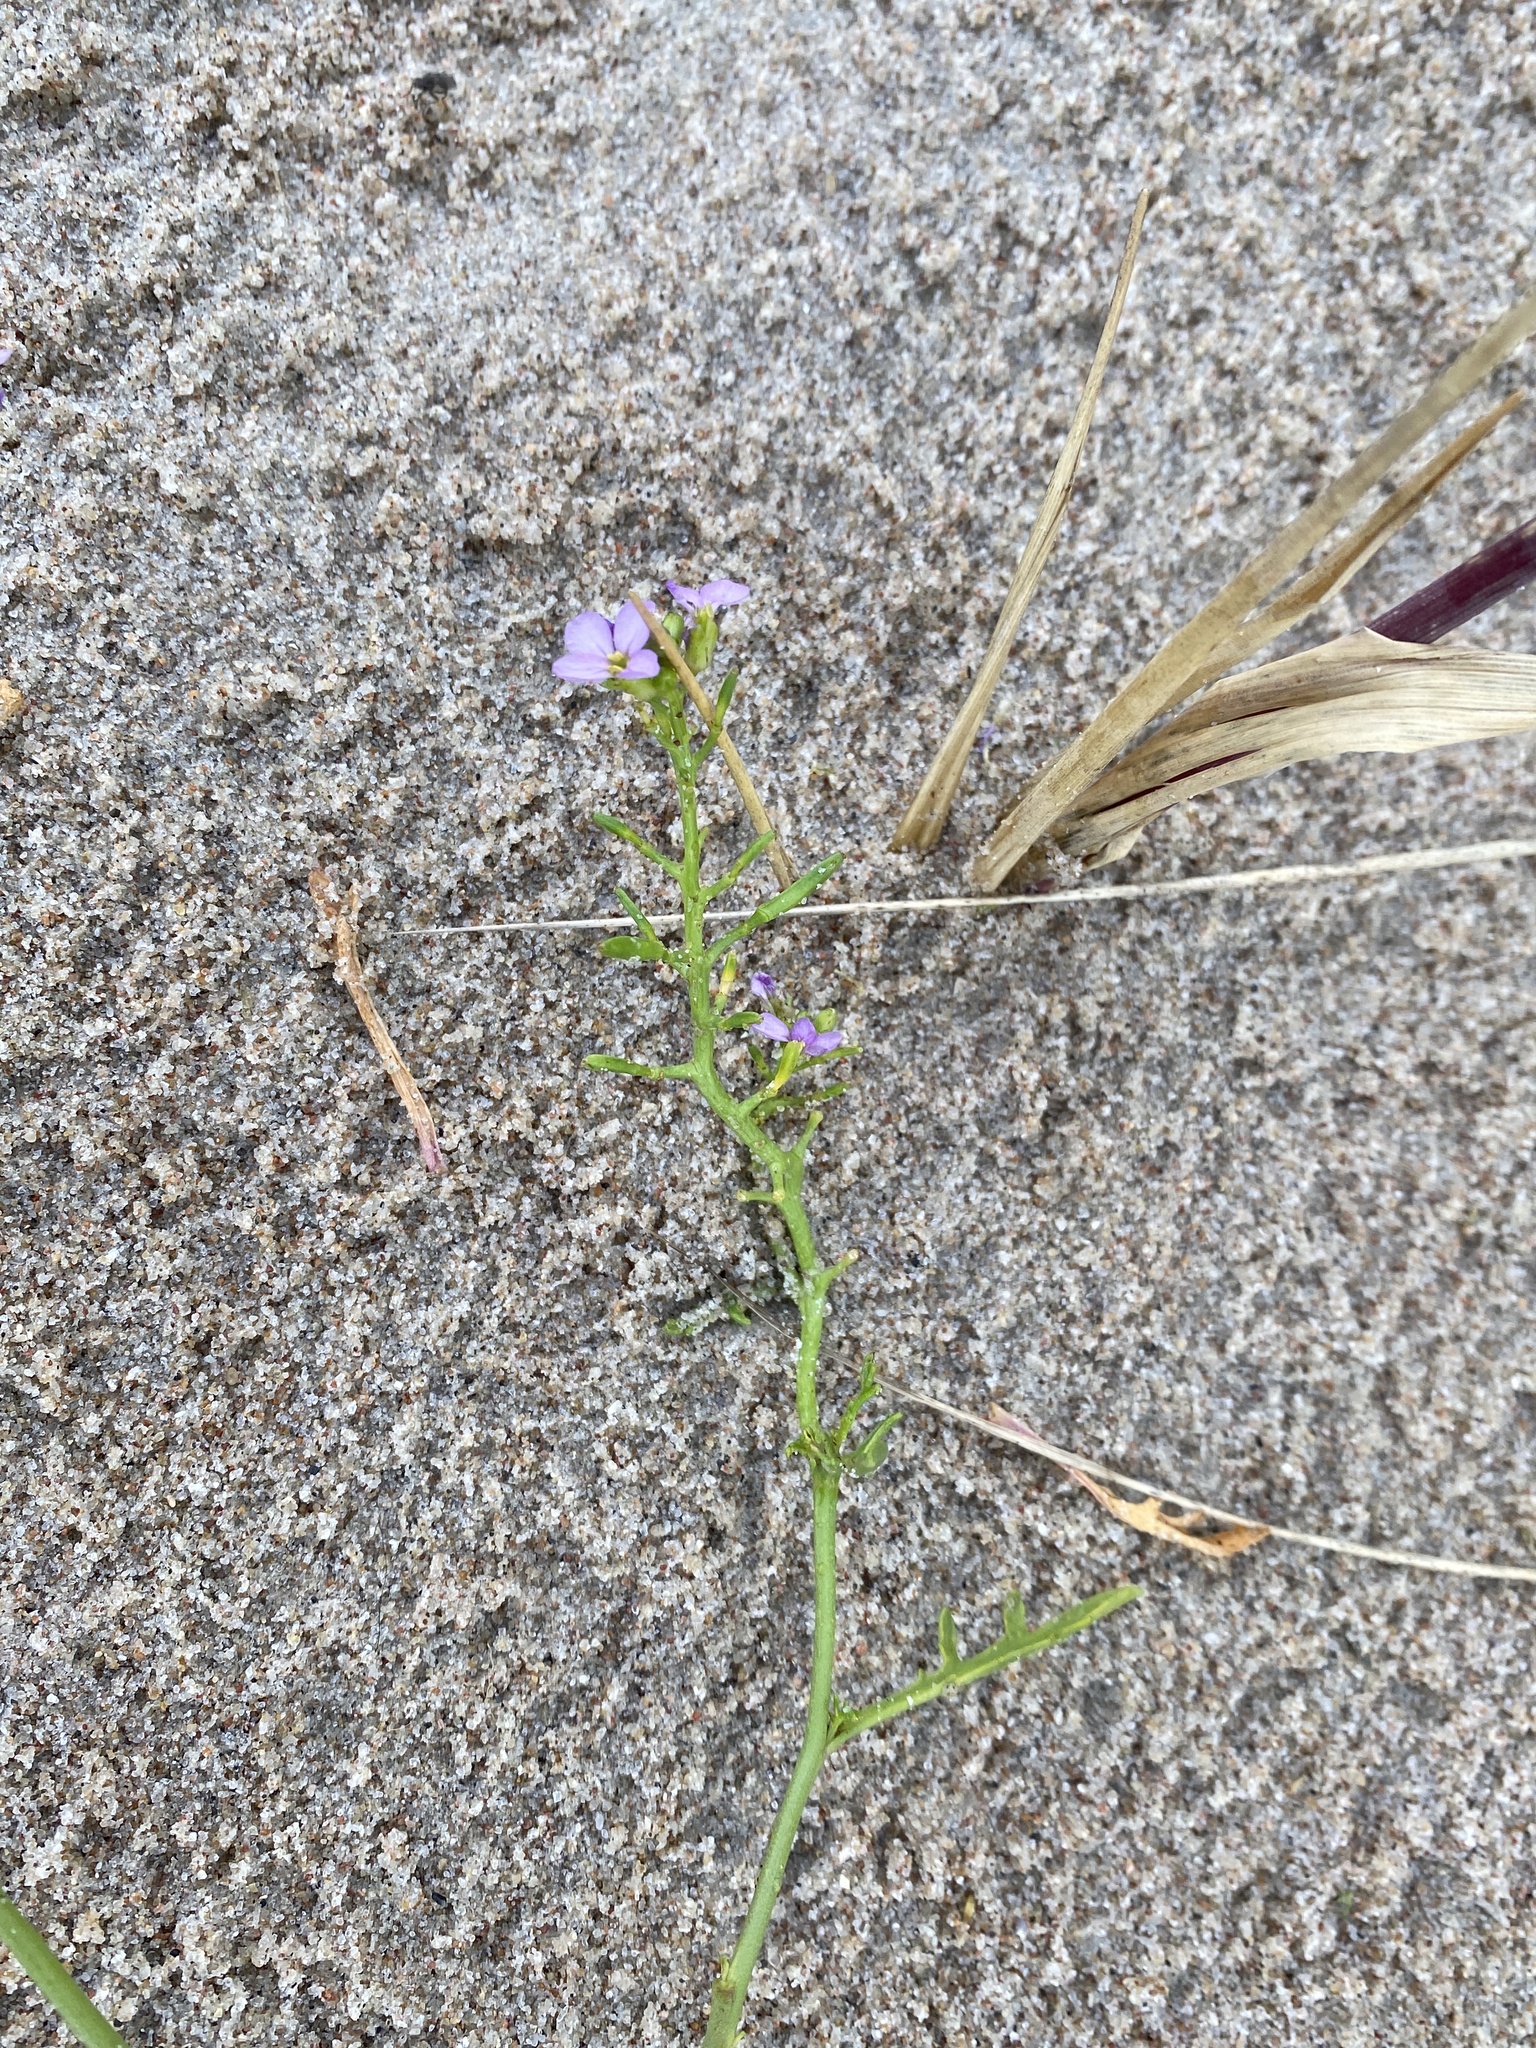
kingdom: Plantae
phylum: Tracheophyta
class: Magnoliopsida
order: Brassicales
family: Brassicaceae
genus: Cakile
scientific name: Cakile maritima
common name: Sea rocket
